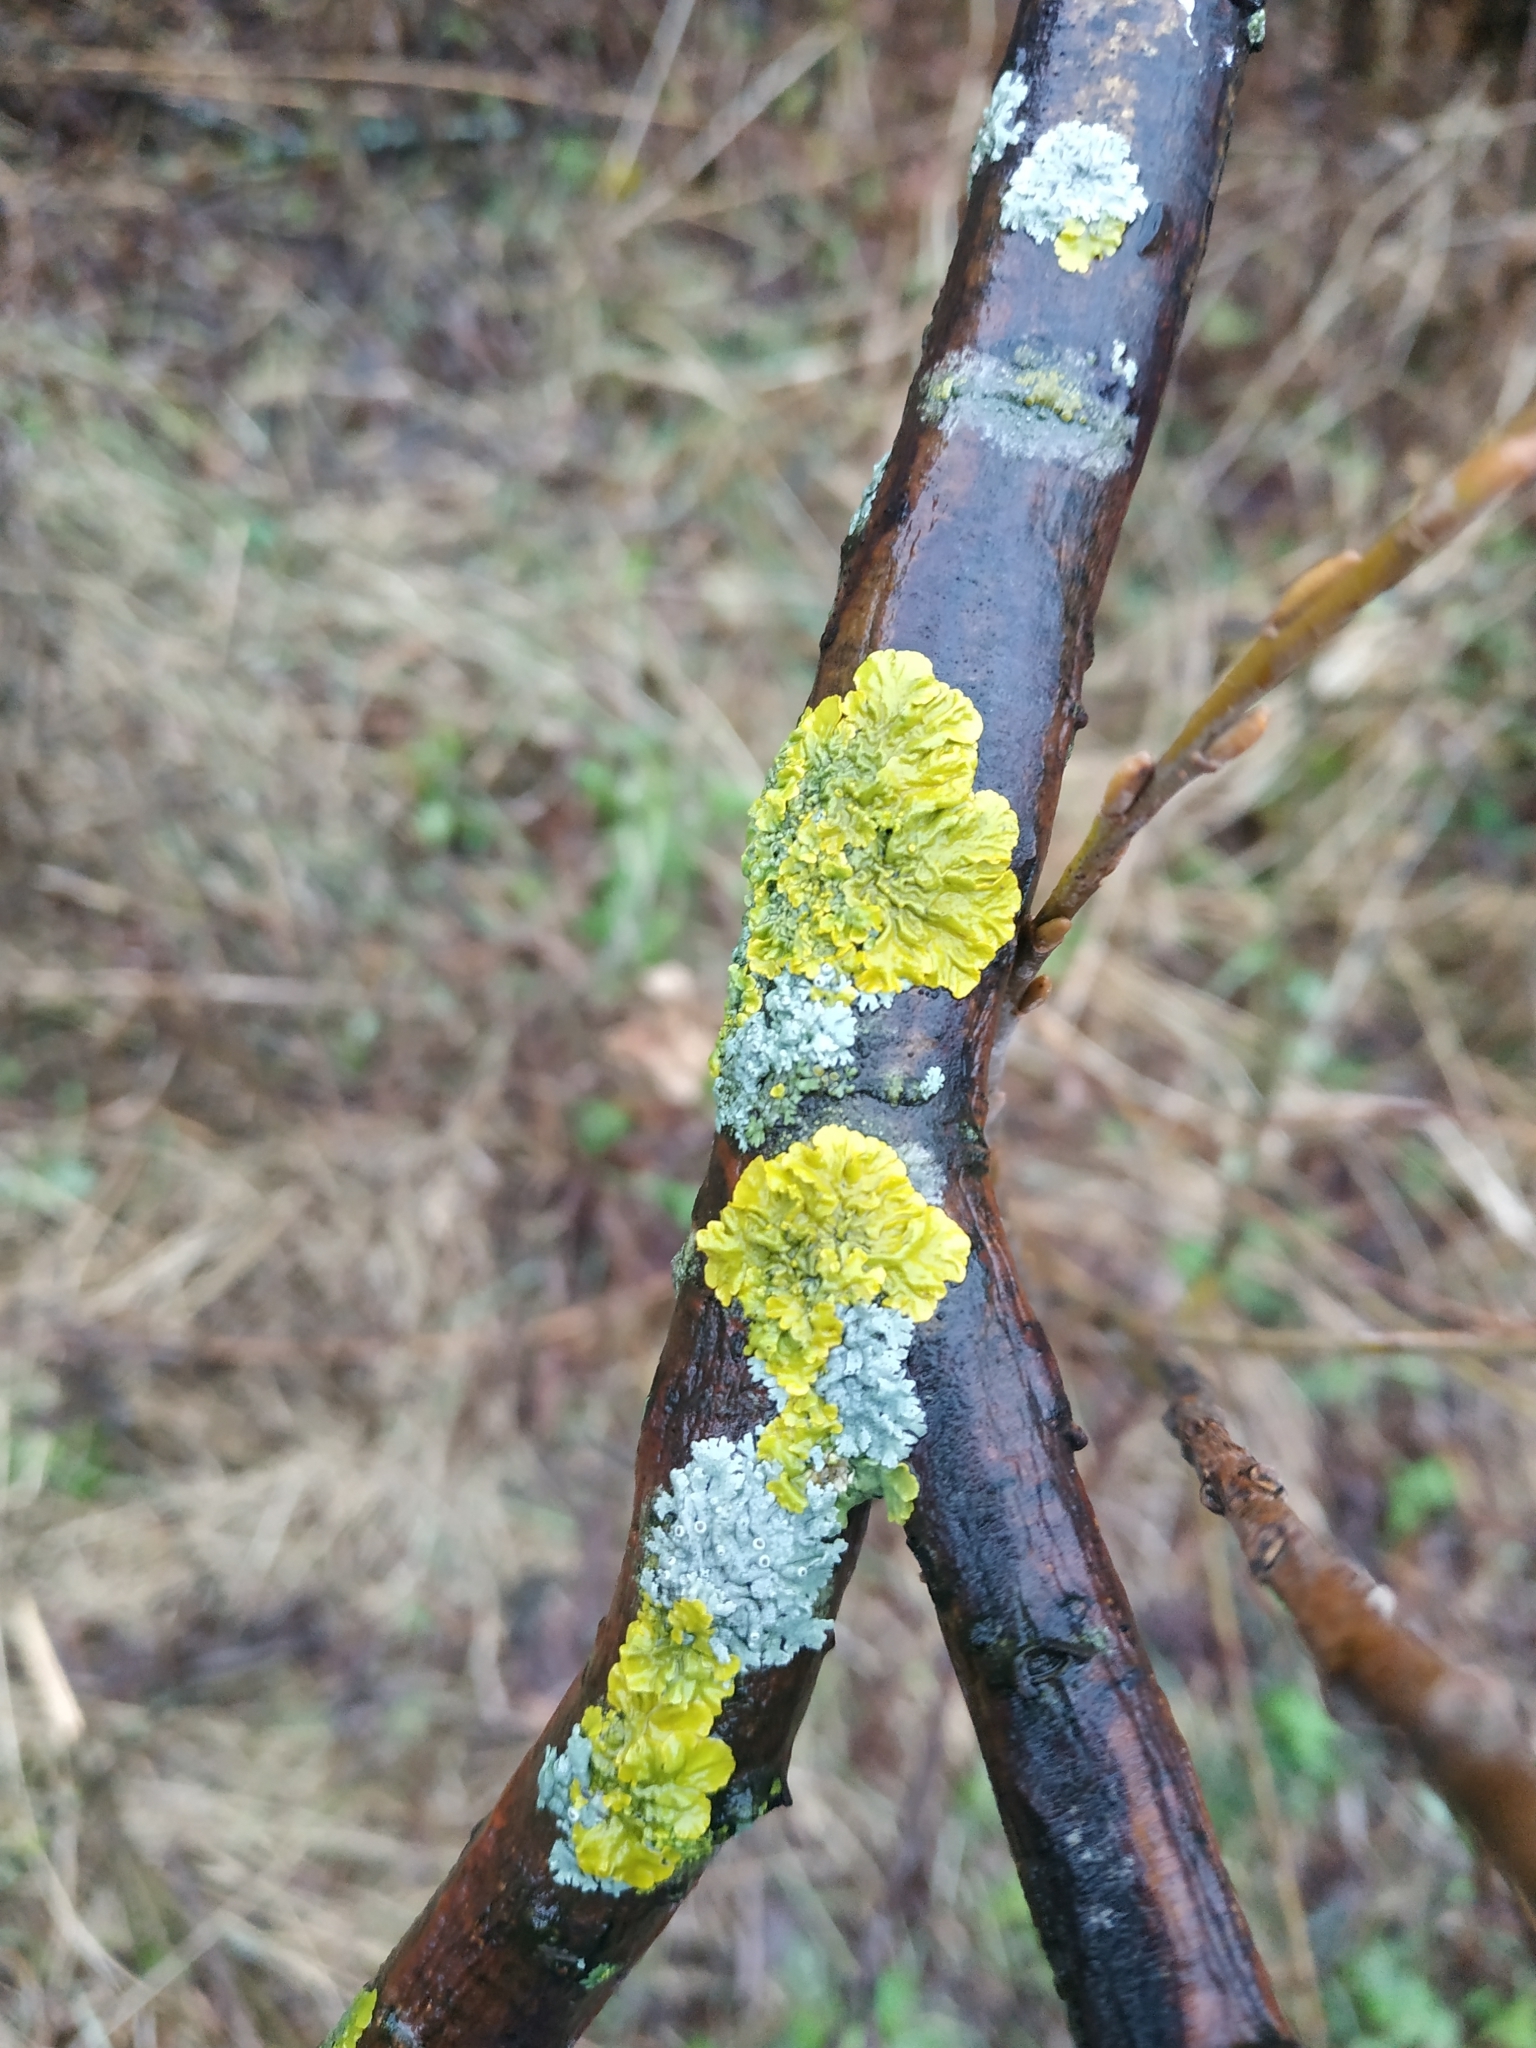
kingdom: Fungi
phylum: Ascomycota
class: Lecanoromycetes
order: Teloschistales
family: Teloschistaceae
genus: Xanthoria
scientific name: Xanthoria parietina
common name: Common orange lichen
